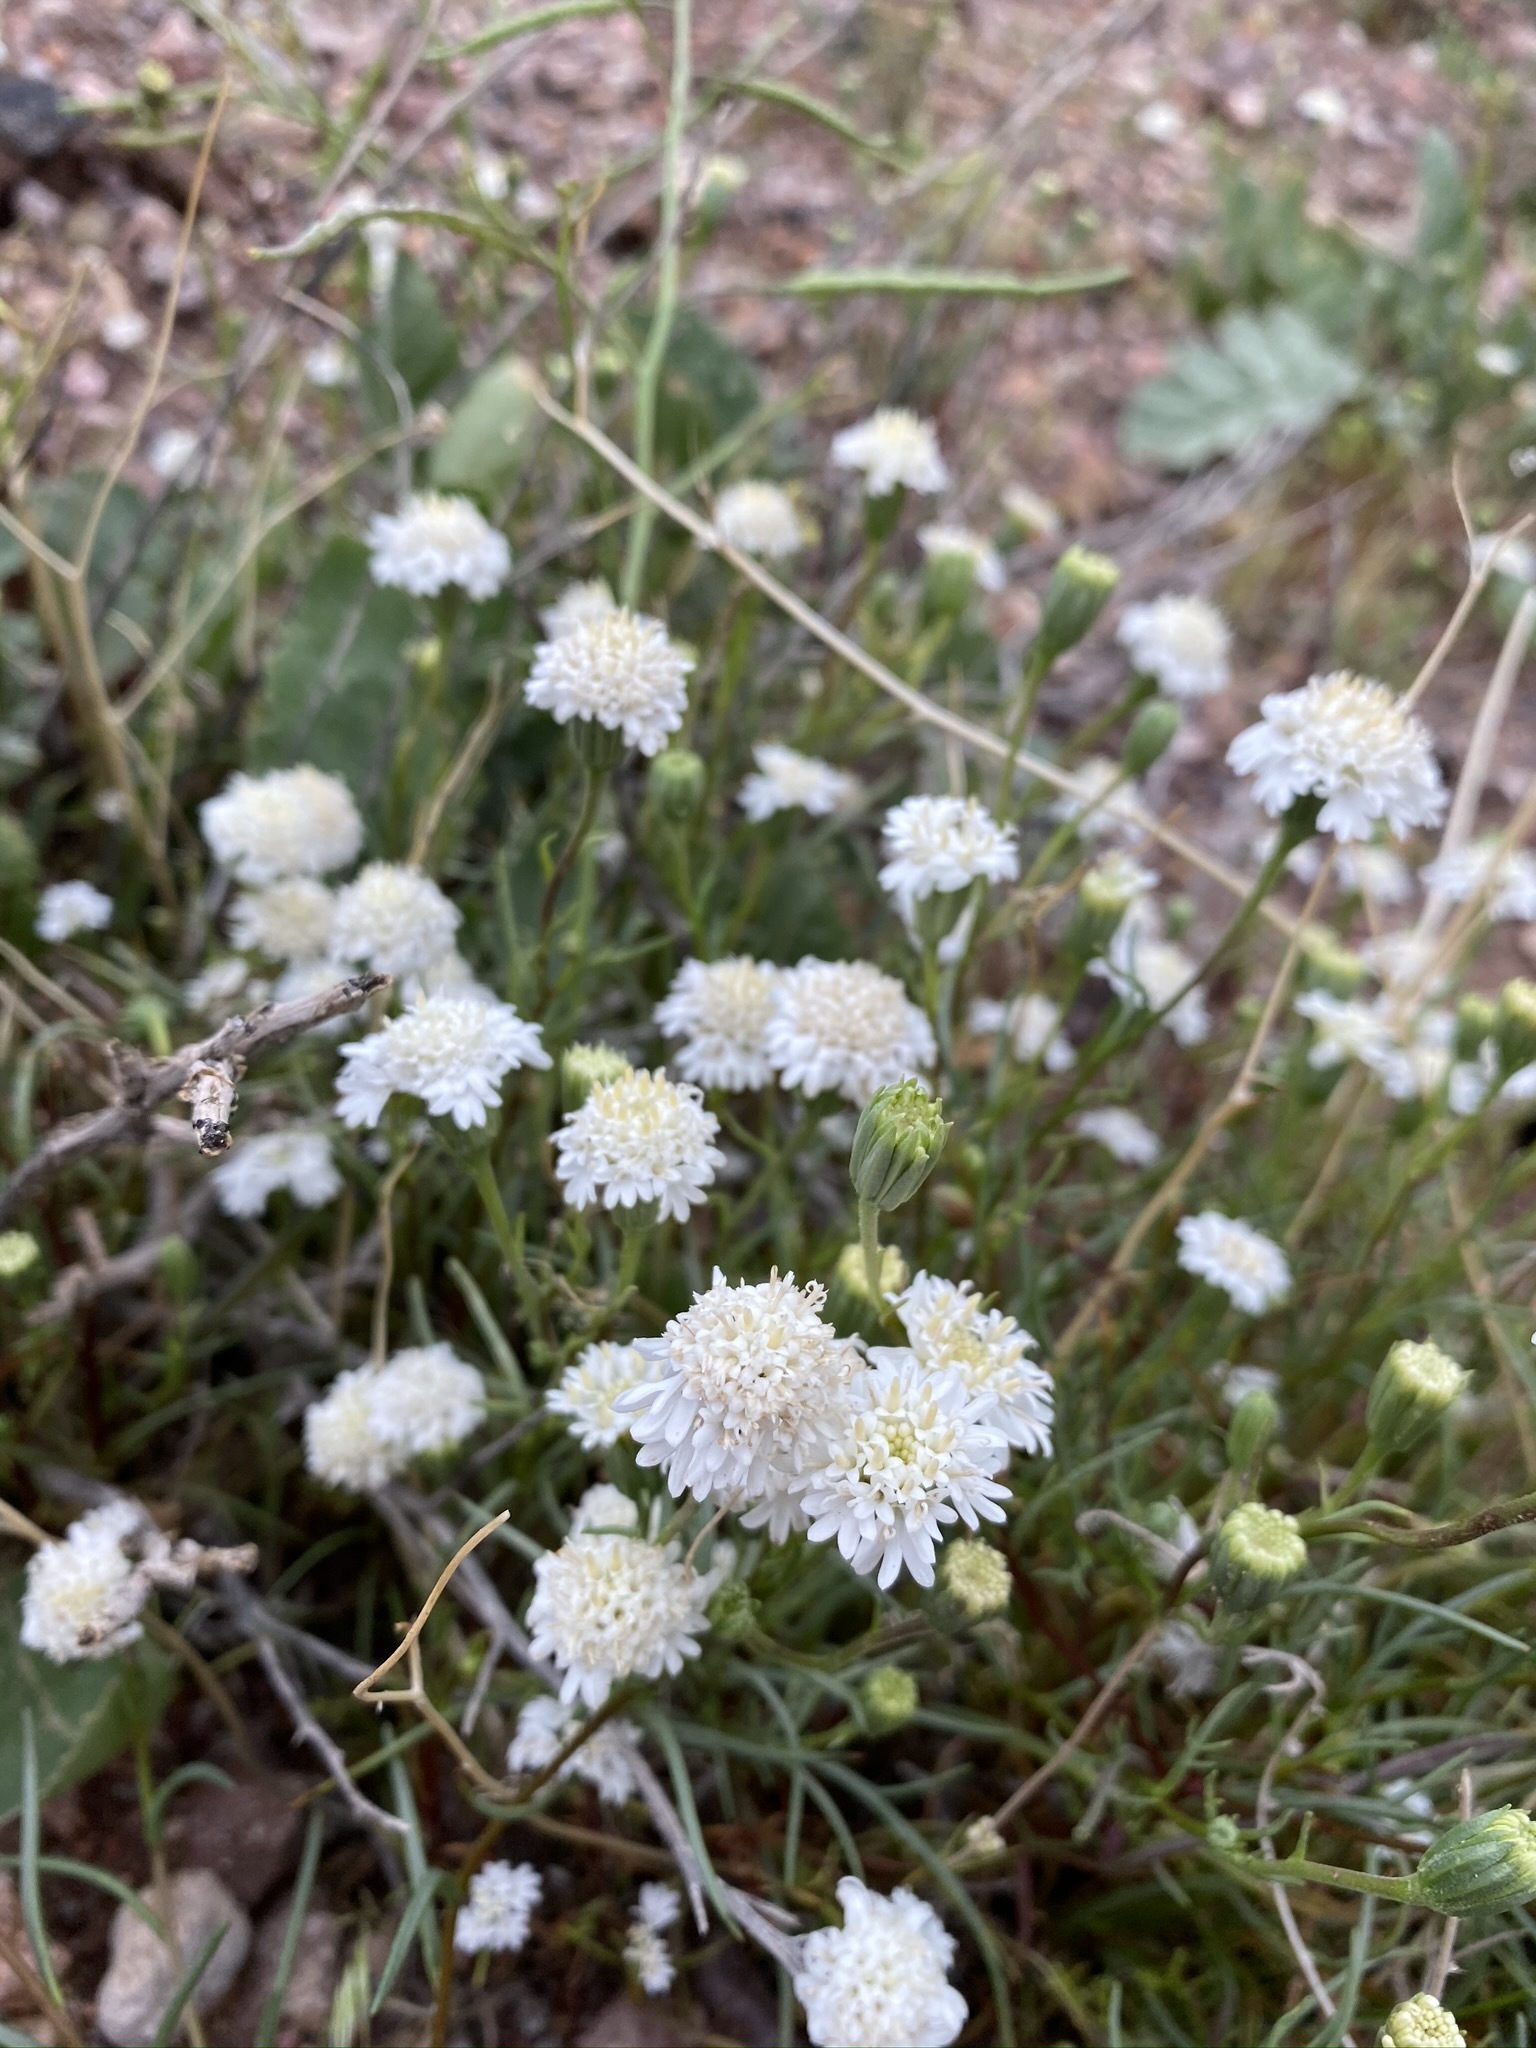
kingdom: Plantae
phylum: Tracheophyta
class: Magnoliopsida
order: Asterales
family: Asteraceae
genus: Chaenactis
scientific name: Chaenactis fremontii
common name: Fremont pincushion
